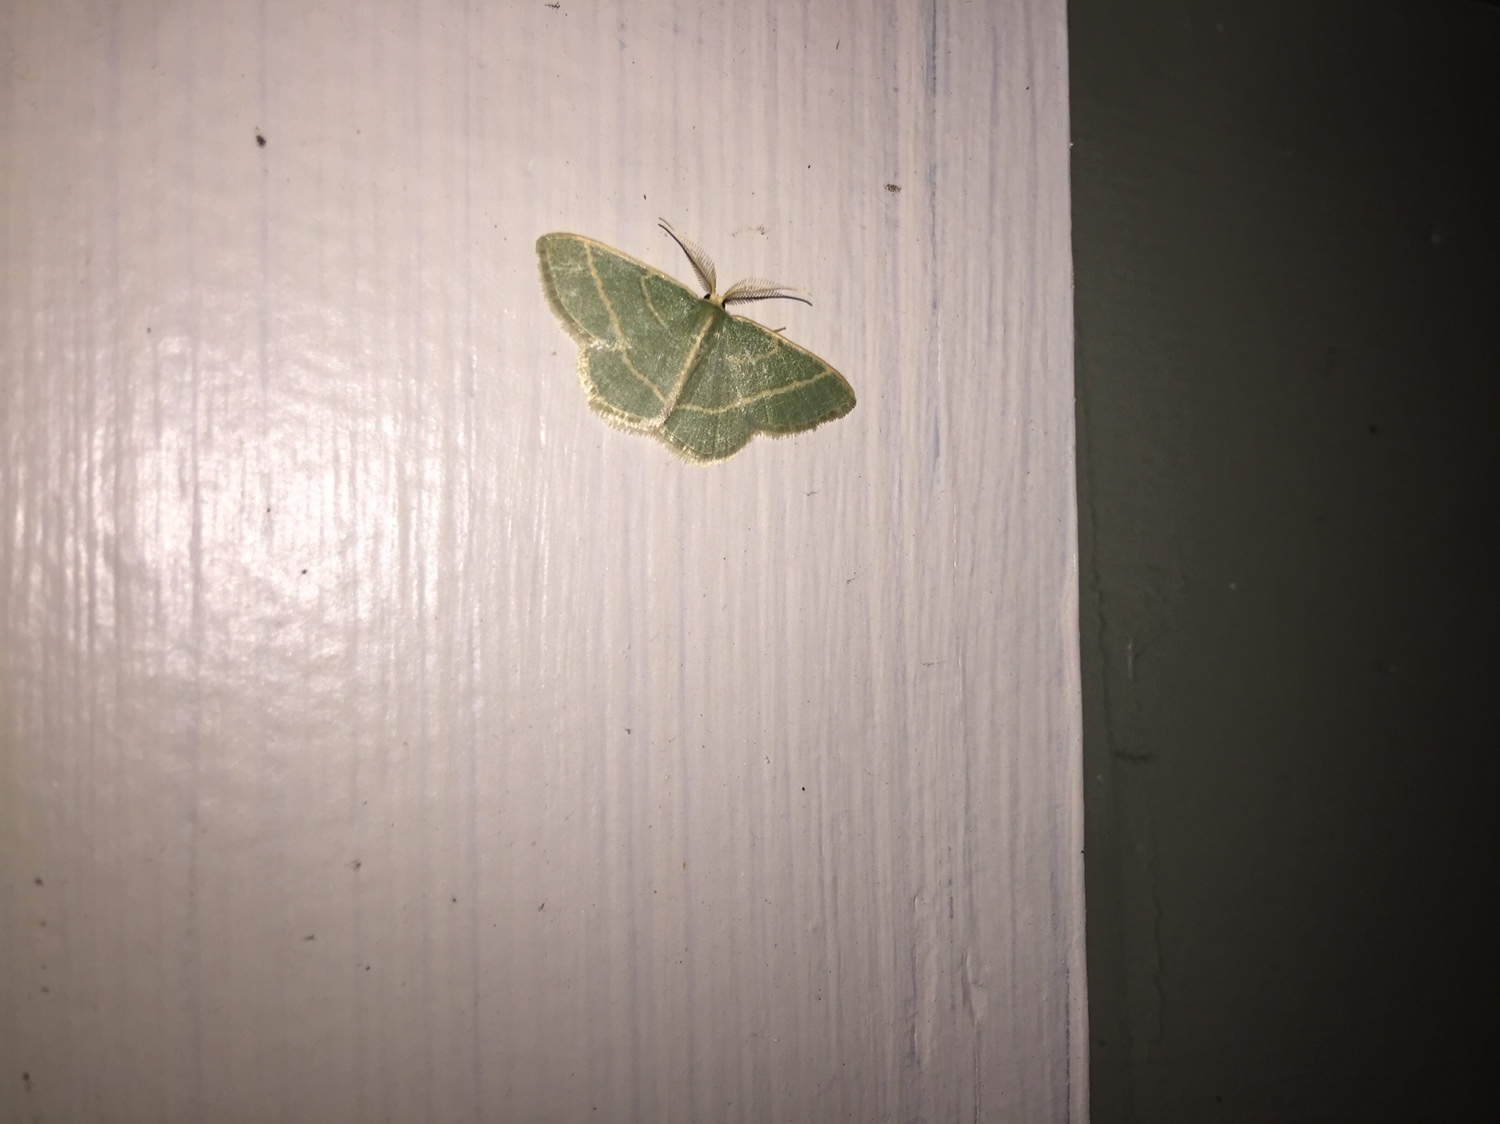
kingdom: Animalia
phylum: Arthropoda
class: Insecta
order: Lepidoptera
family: Geometridae
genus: Chlorochlamys
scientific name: Chlorochlamys chloroleucaria
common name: Blackberry looper
